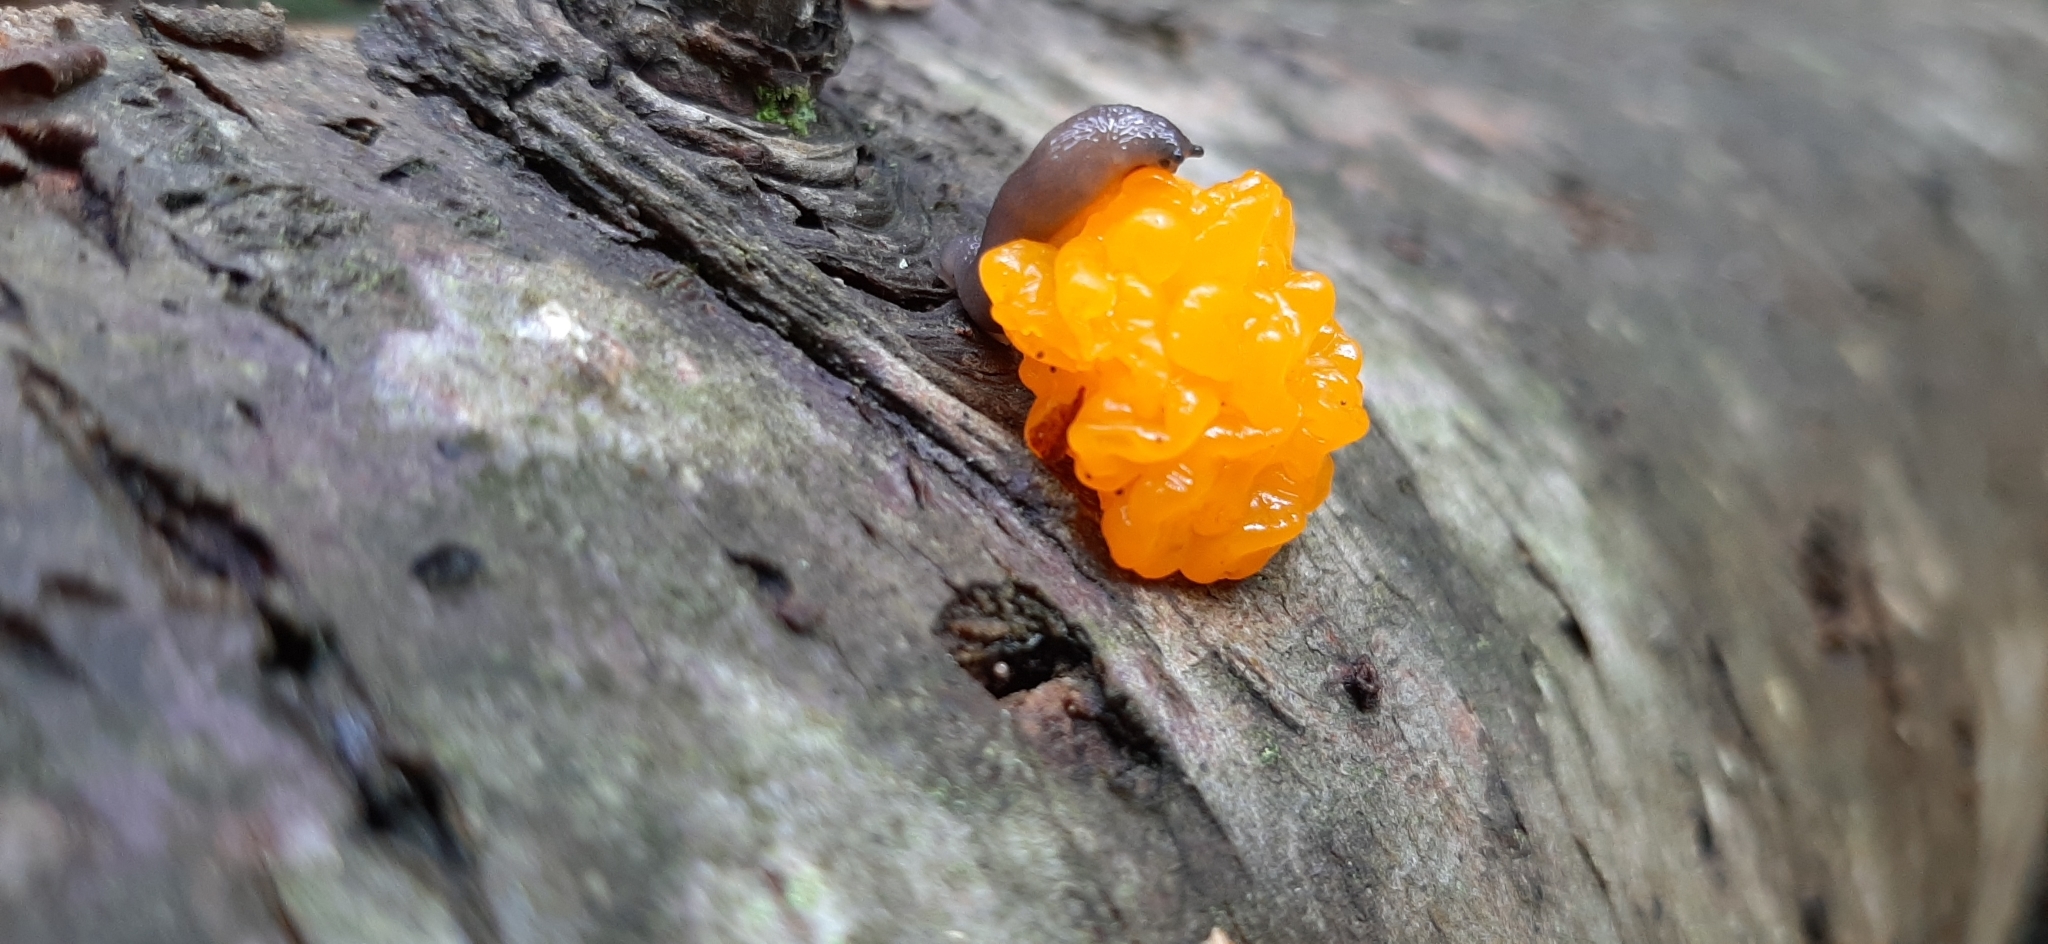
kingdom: Fungi
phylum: Basidiomycota
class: Dacrymycetes
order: Dacrymycetales
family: Dacrymycetaceae
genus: Dacrymyces
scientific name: Dacrymyces chrysospermus
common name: Orange jelly spot
